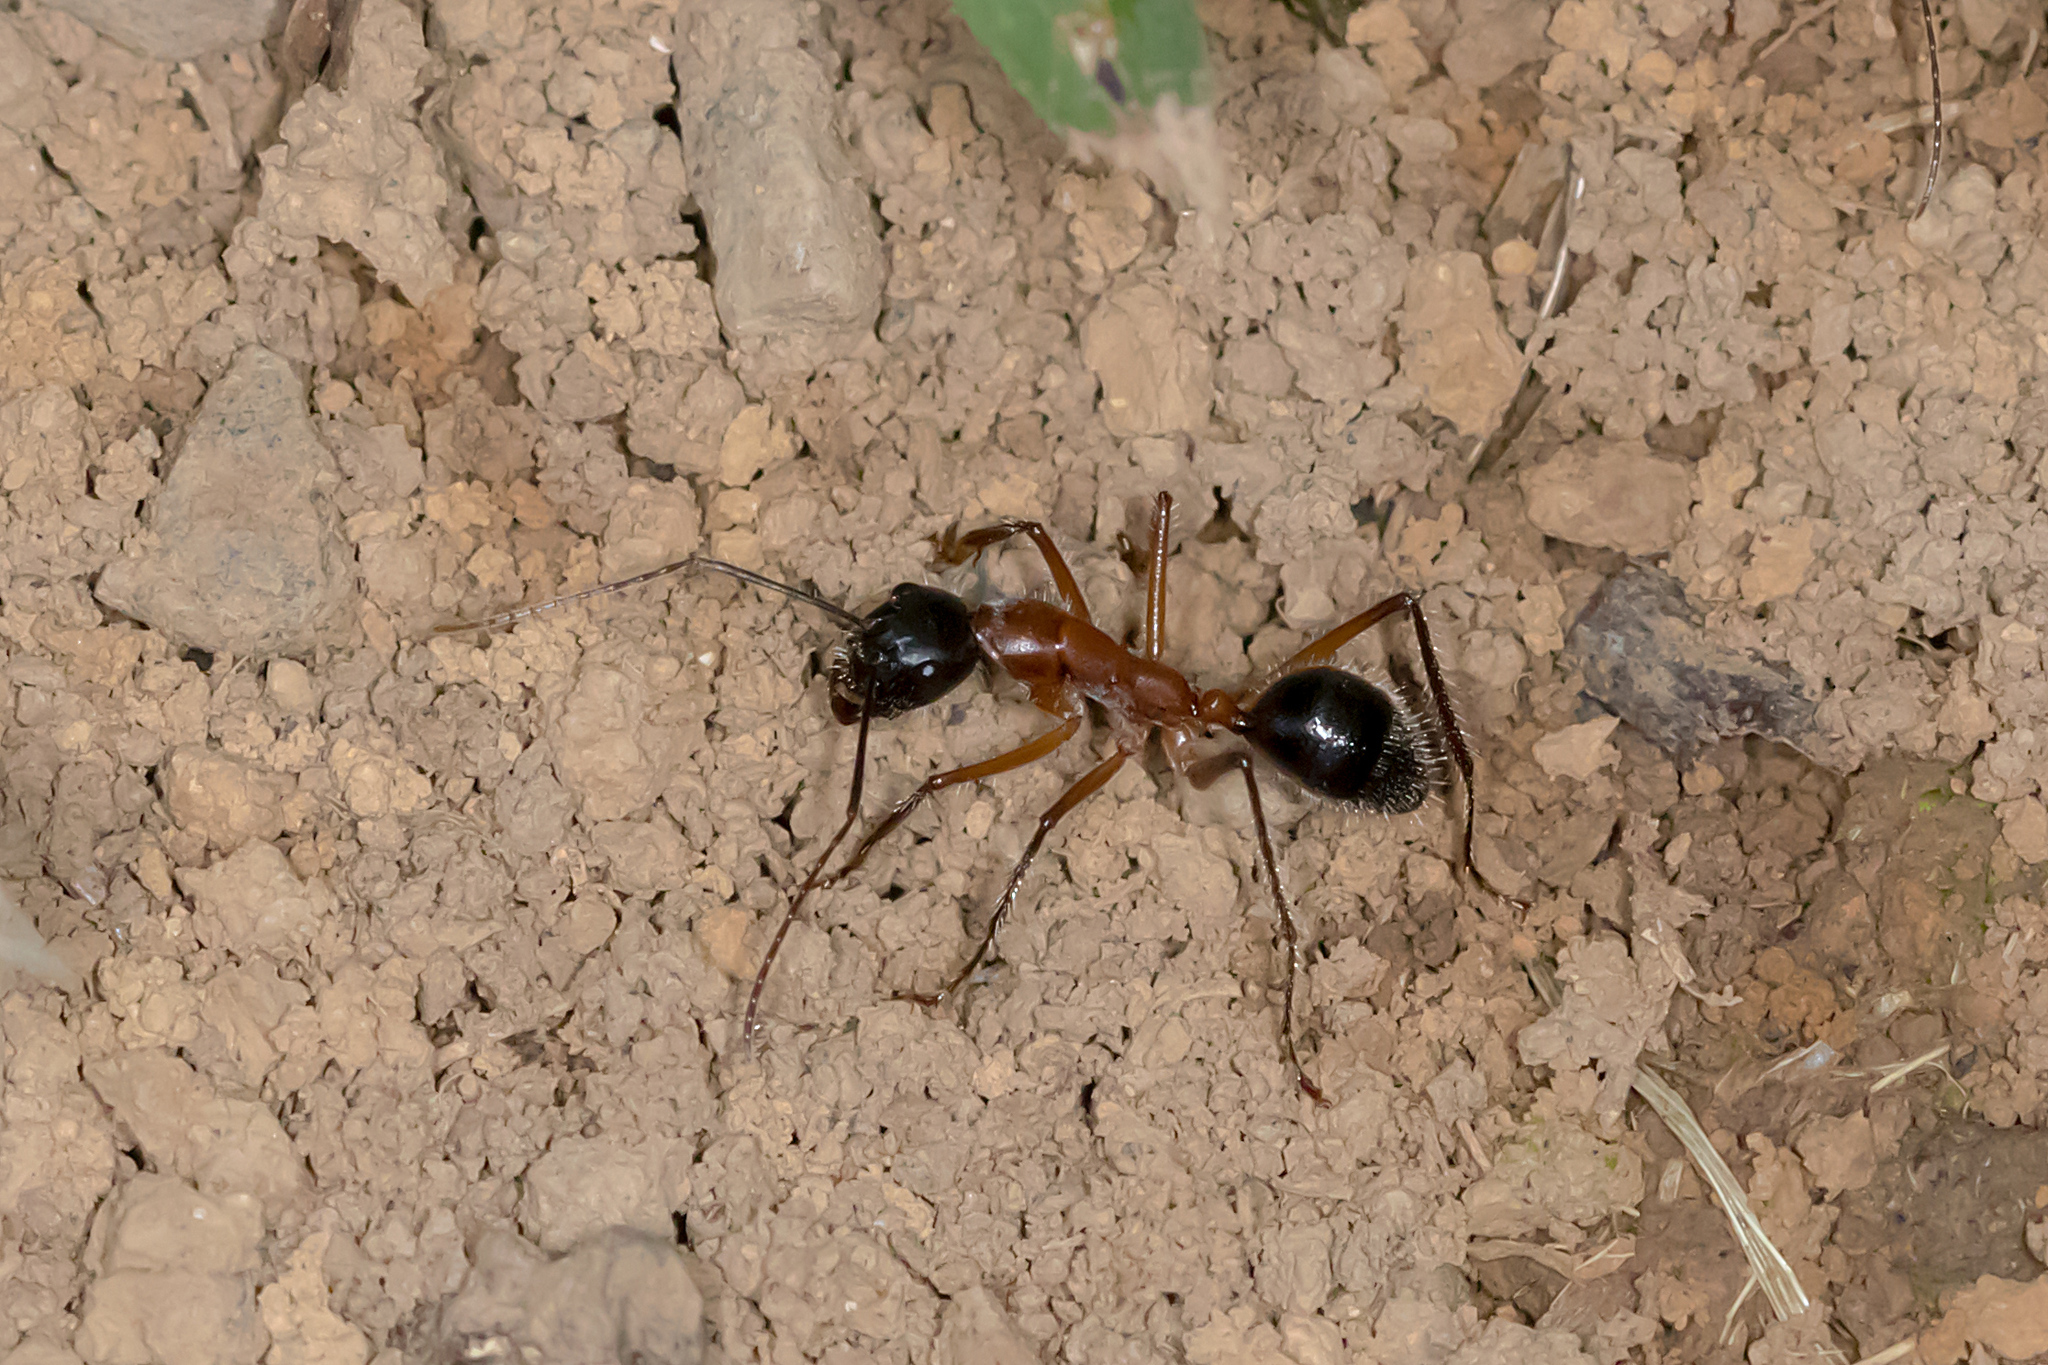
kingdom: Animalia
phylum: Arthropoda
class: Insecta
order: Hymenoptera
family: Formicidae
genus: Camponotus
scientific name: Camponotus intrepidus
